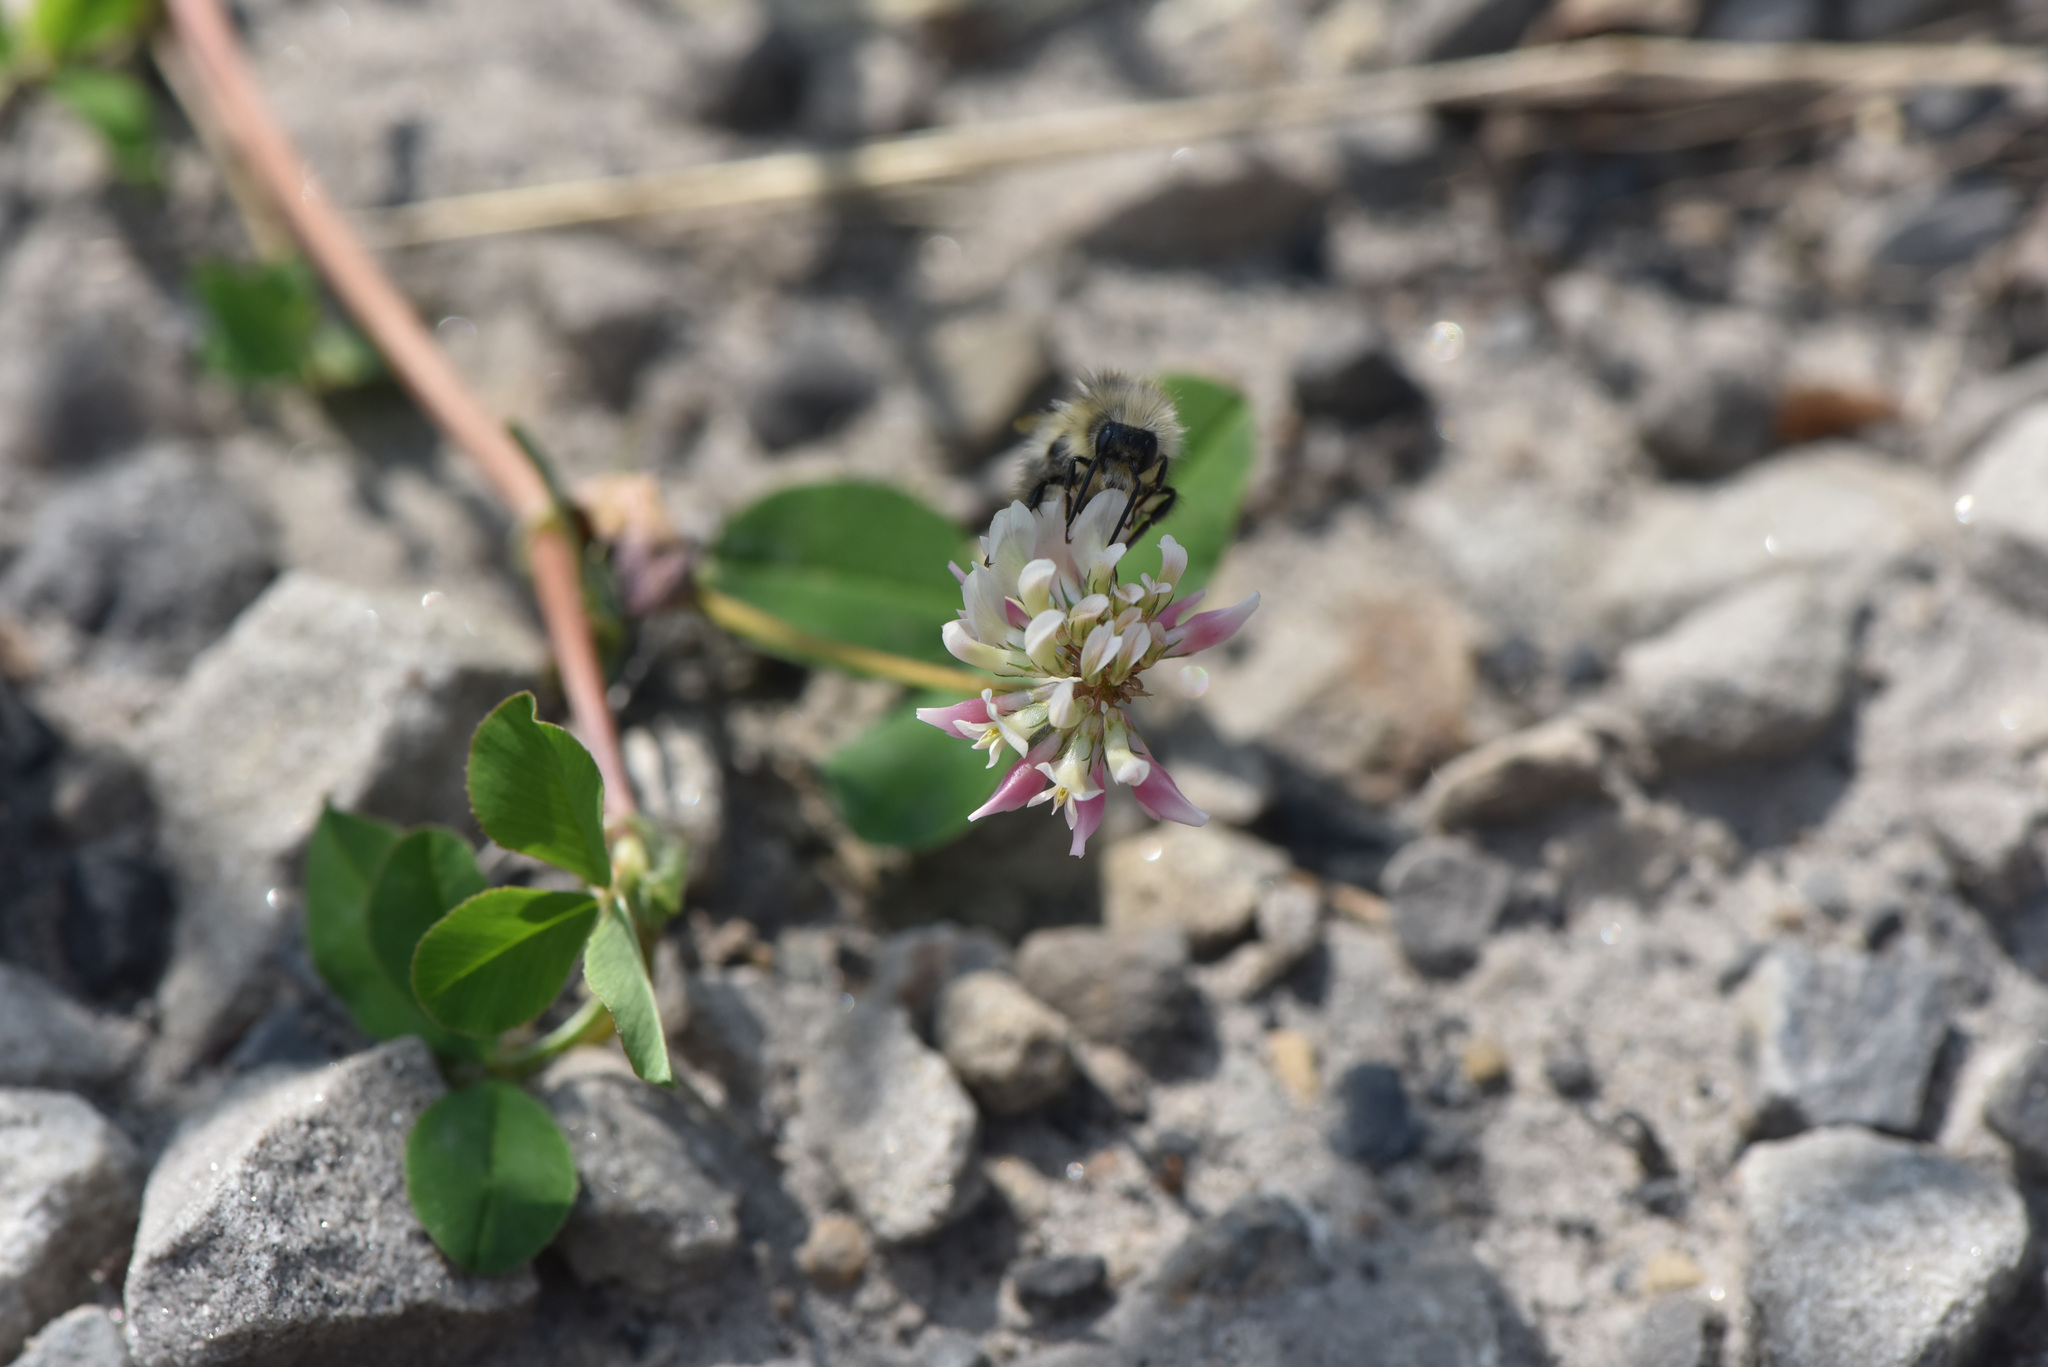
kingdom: Plantae
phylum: Tracheophyta
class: Magnoliopsida
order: Fabales
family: Fabaceae
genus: Trifolium
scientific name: Trifolium hybridum
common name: Alsike clover
